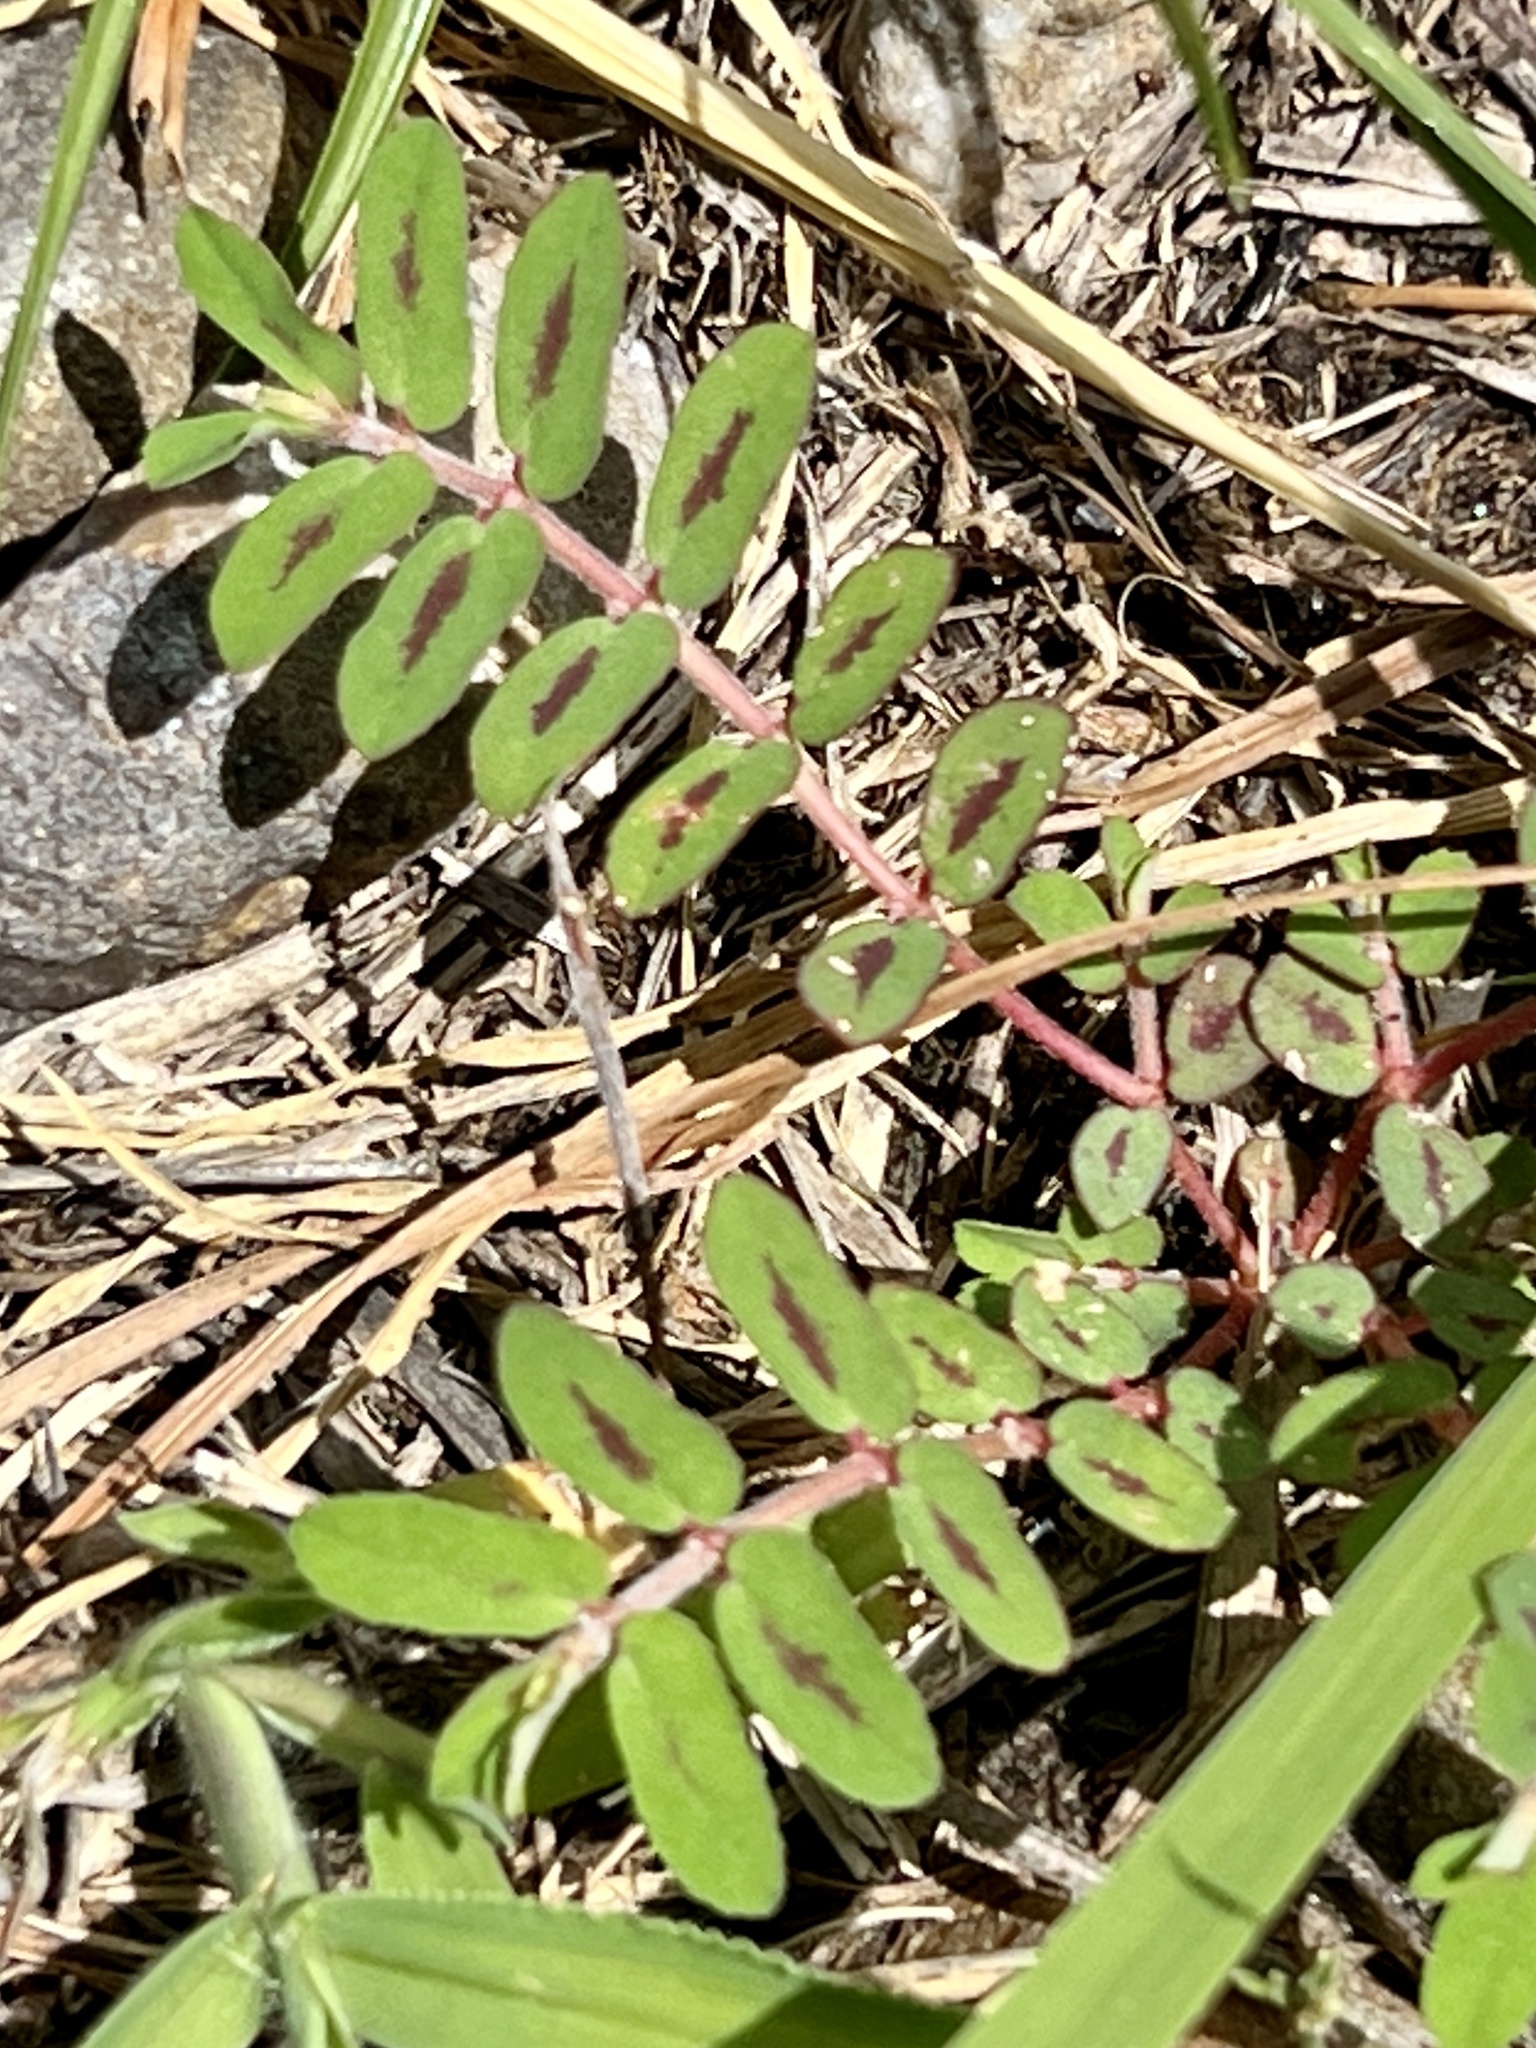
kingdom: Plantae
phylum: Tracheophyta
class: Magnoliopsida
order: Malpighiales
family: Euphorbiaceae
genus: Euphorbia
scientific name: Euphorbia maculata
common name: Spotted spurge
